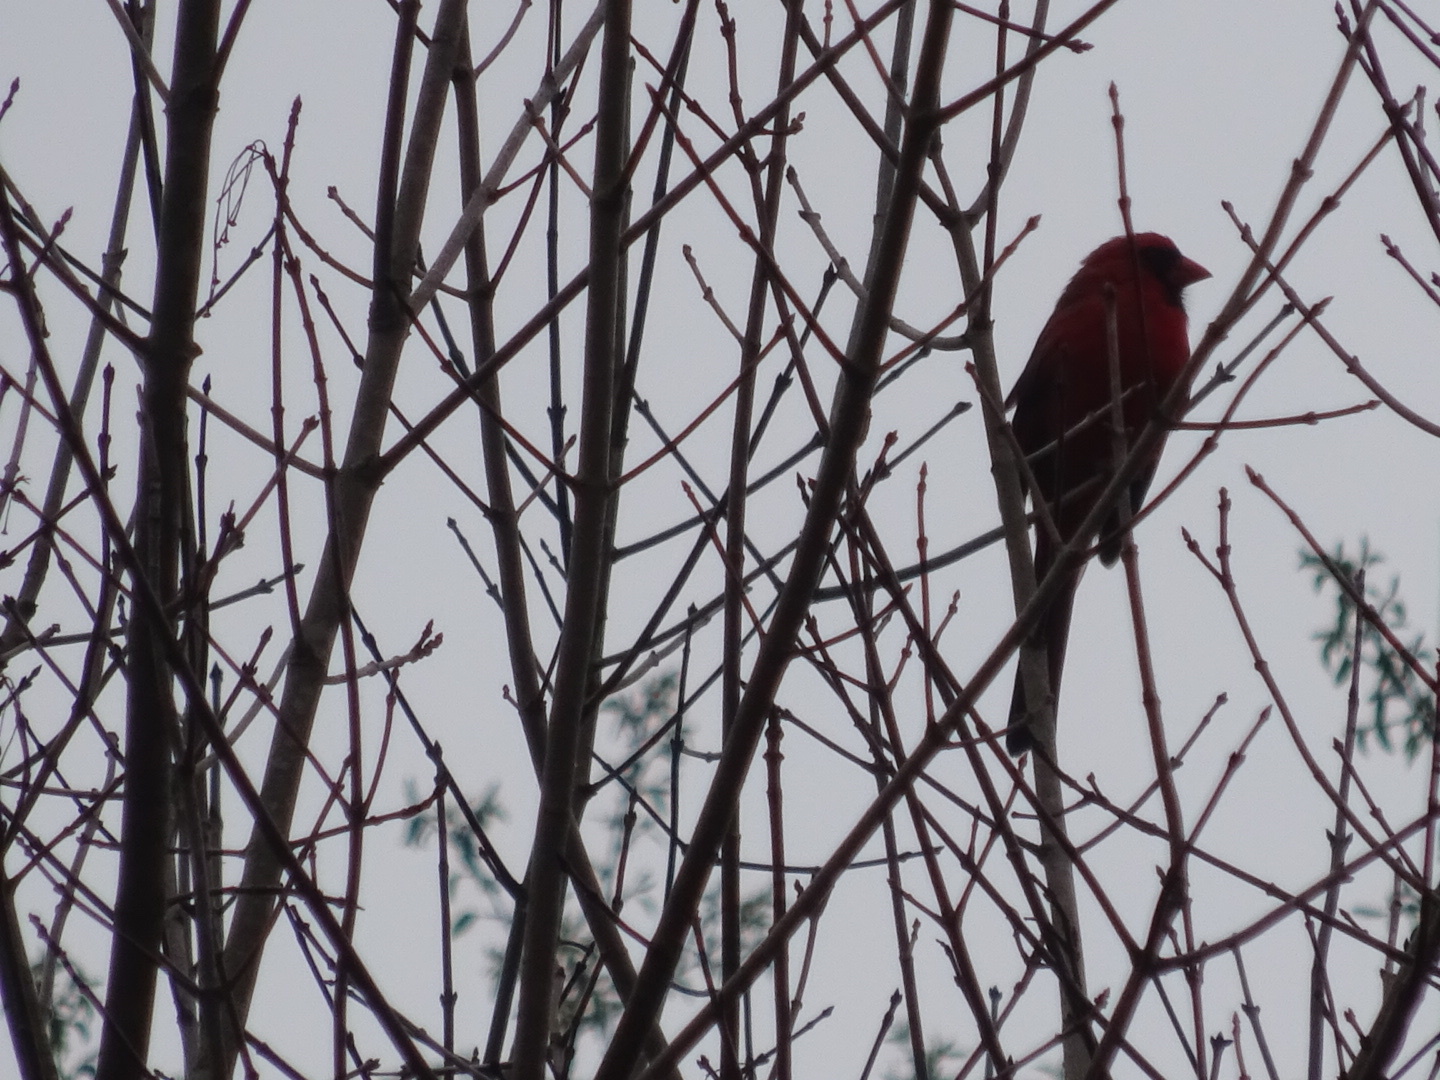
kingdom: Animalia
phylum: Chordata
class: Aves
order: Passeriformes
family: Cardinalidae
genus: Cardinalis
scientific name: Cardinalis cardinalis
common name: Northern cardinal
